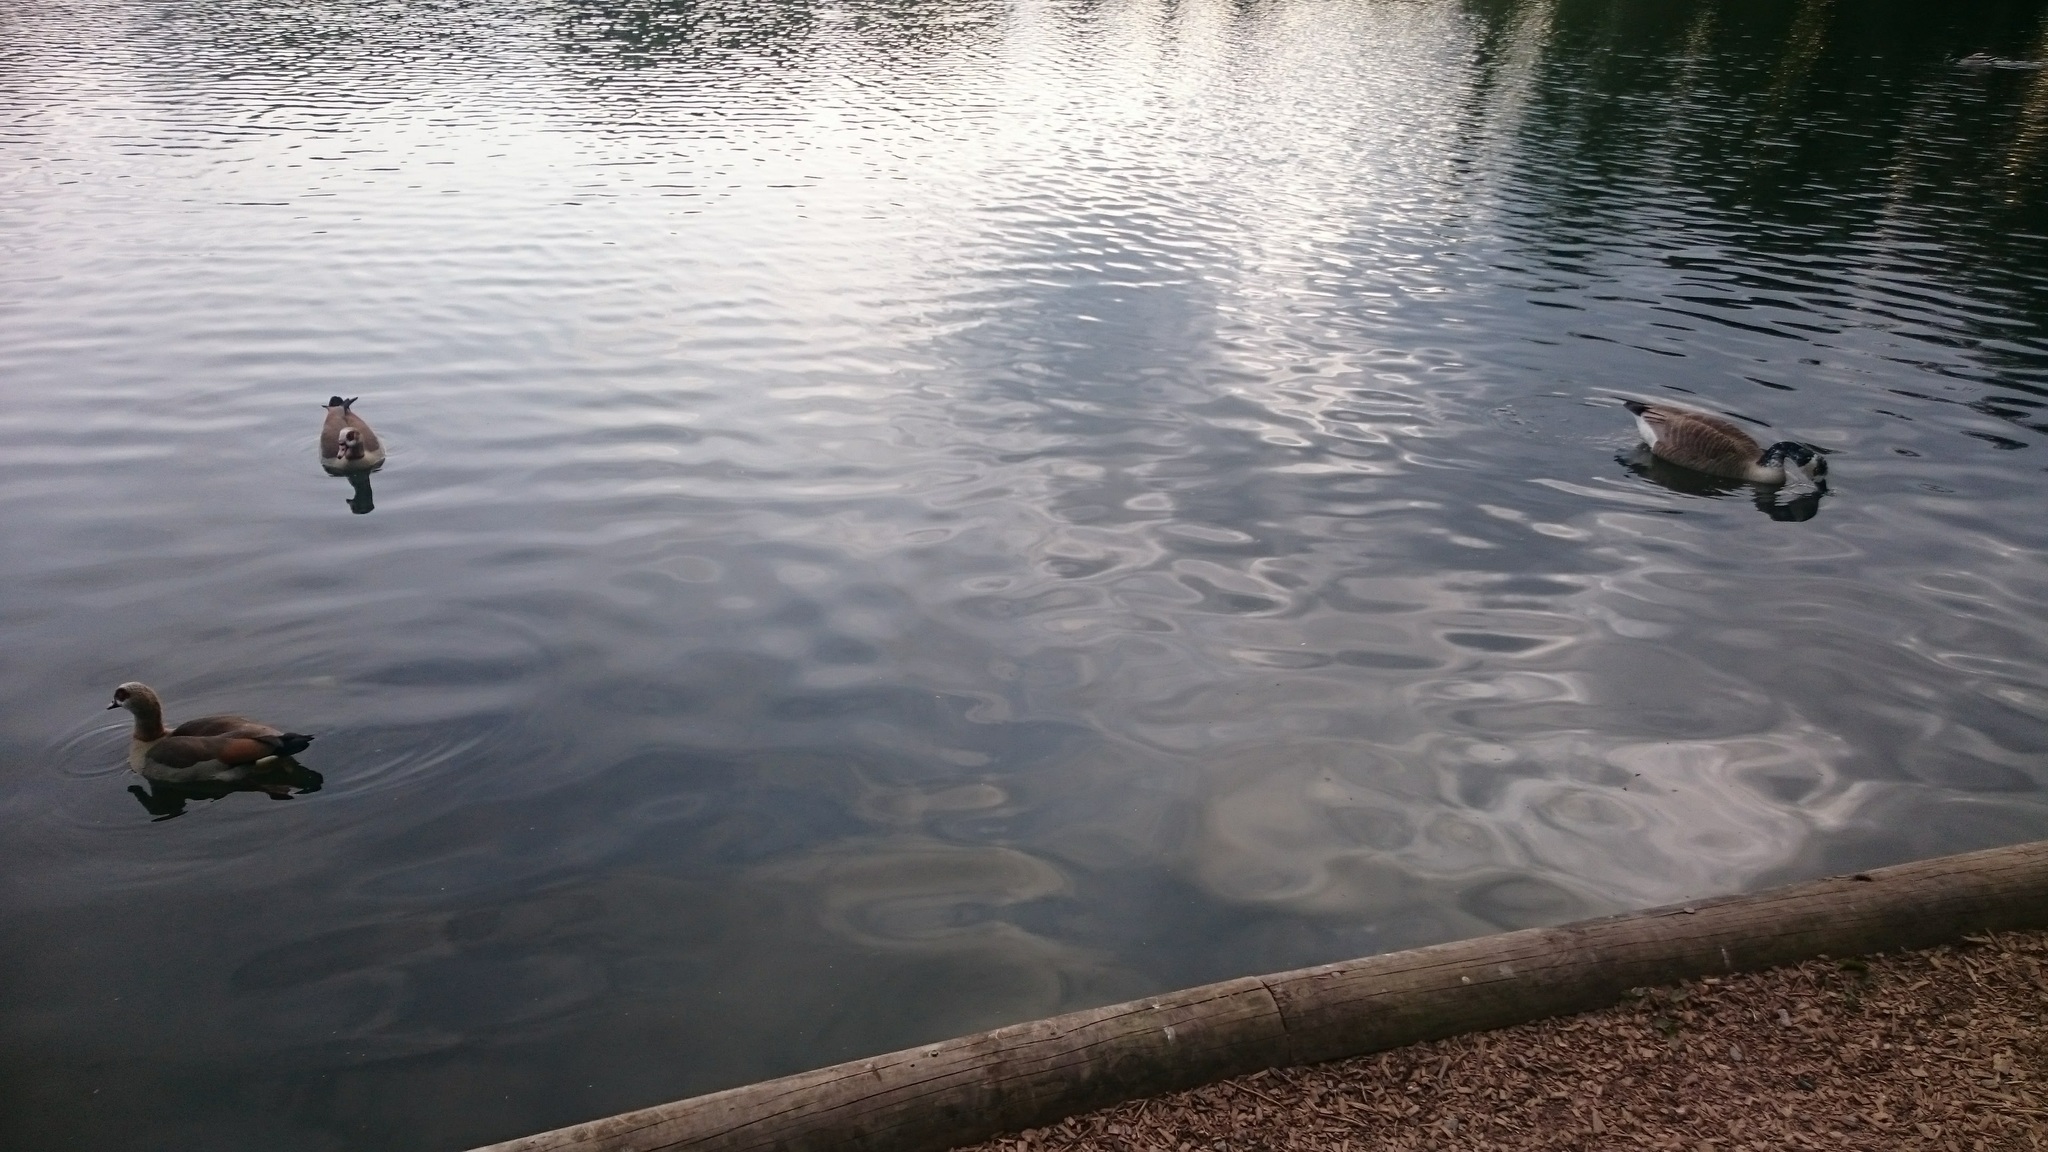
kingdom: Animalia
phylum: Chordata
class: Aves
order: Anseriformes
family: Anatidae
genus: Branta
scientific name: Branta canadensis
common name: Canada goose
